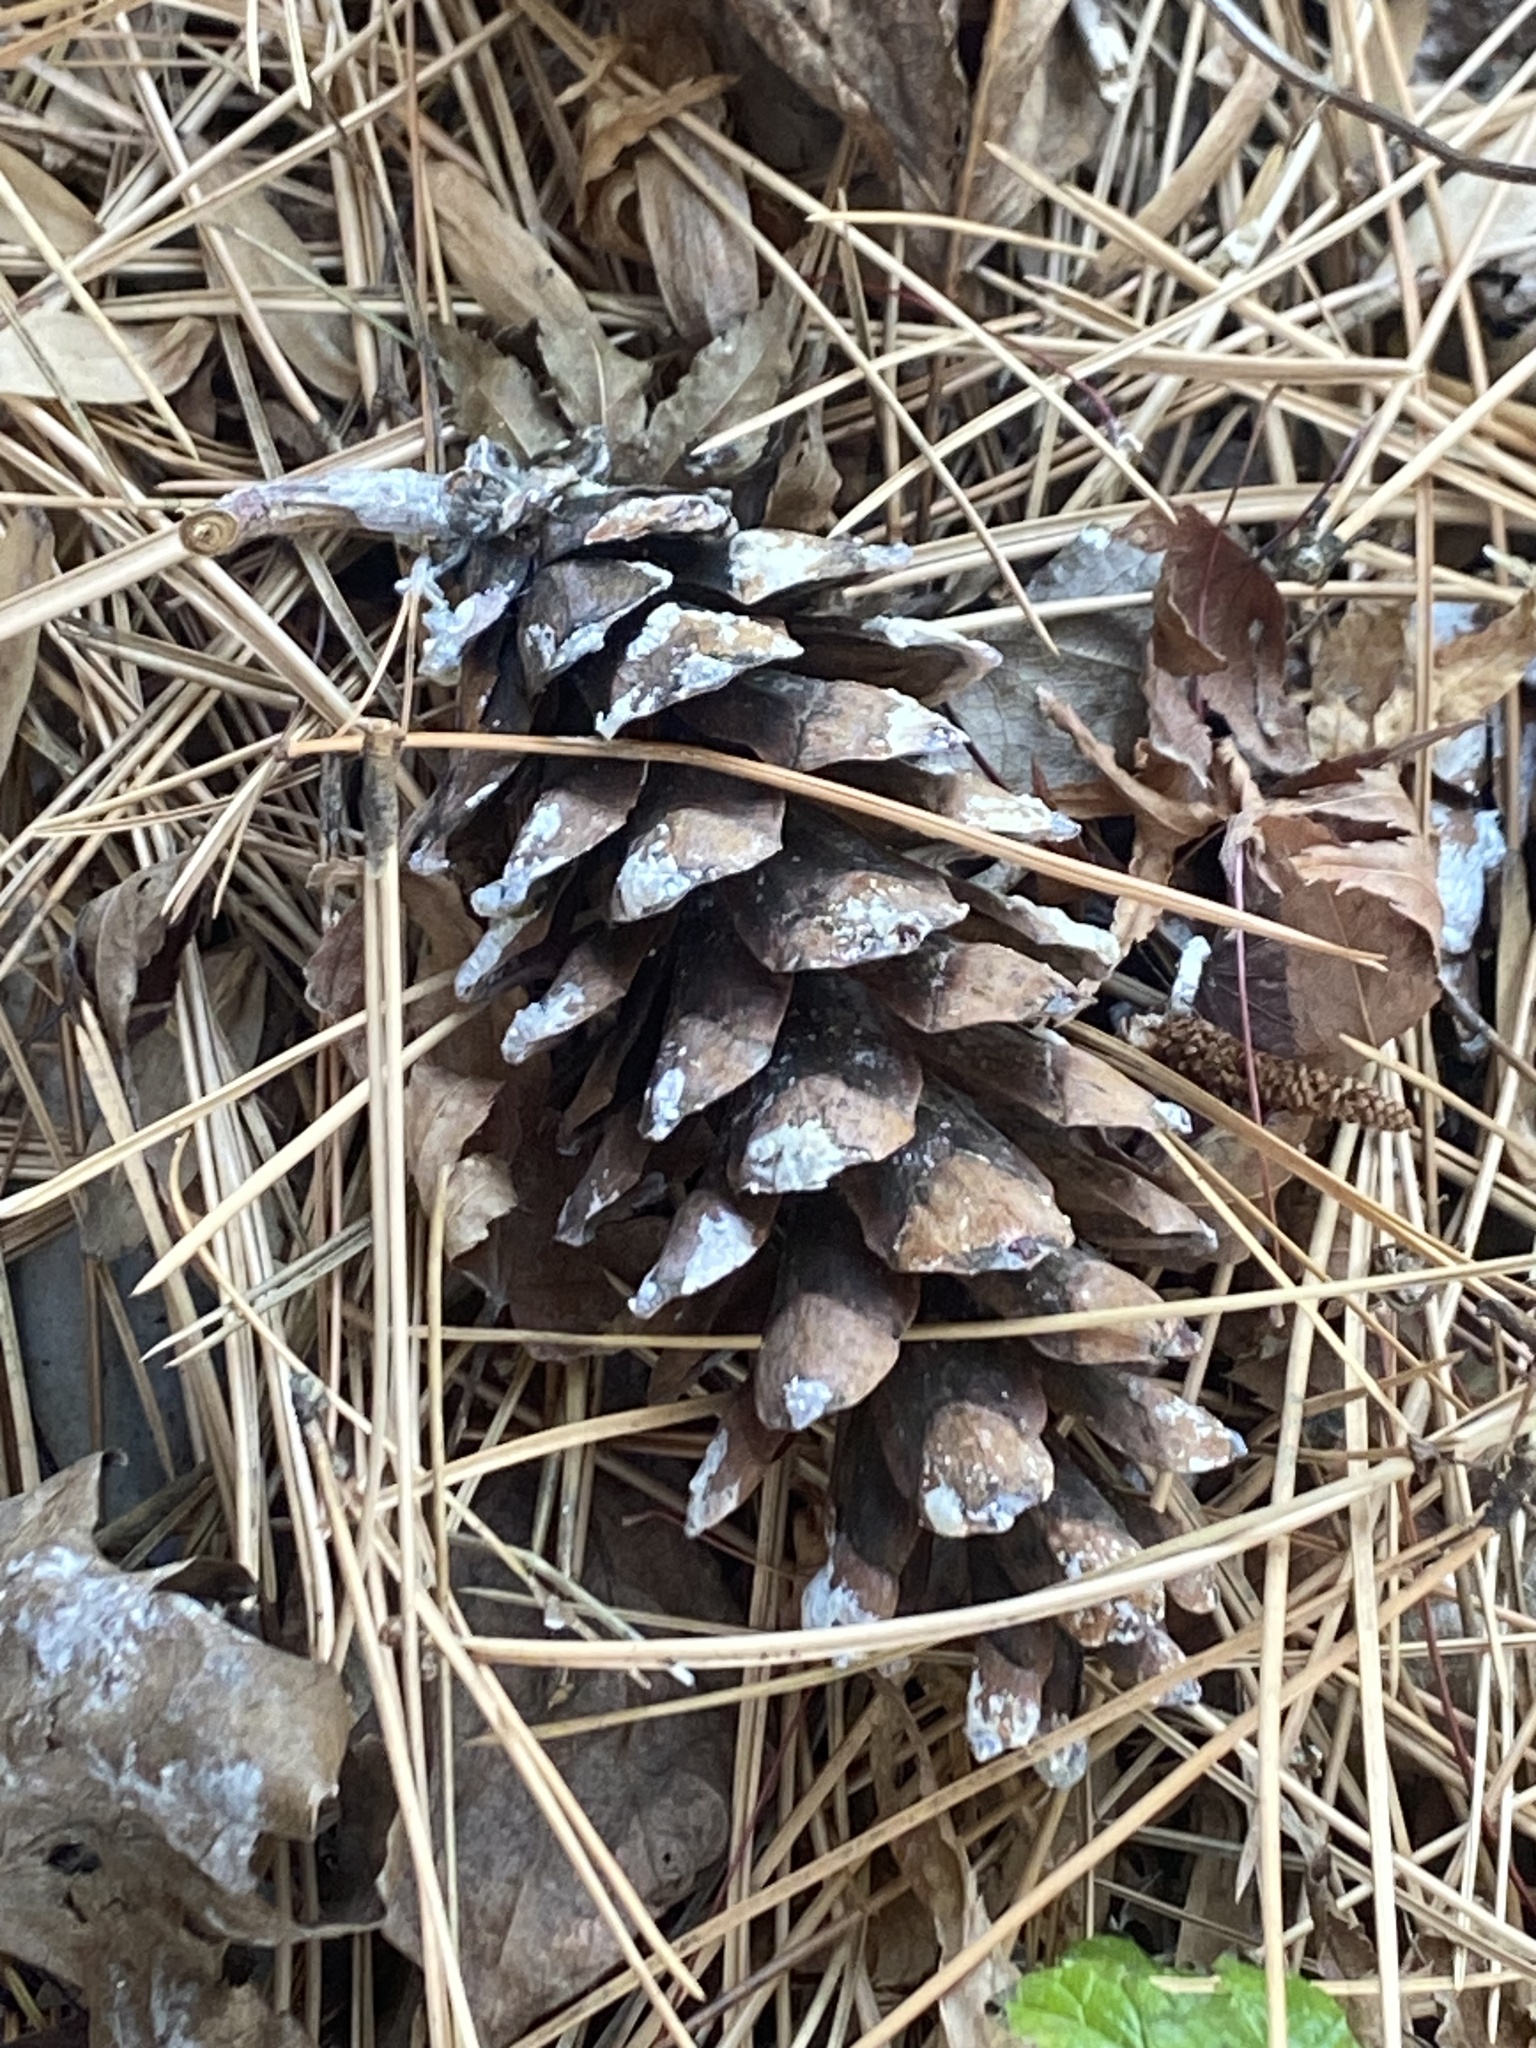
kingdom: Plantae
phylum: Tracheophyta
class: Pinopsida
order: Pinales
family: Pinaceae
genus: Pinus
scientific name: Pinus strobus
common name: Weymouth pine
